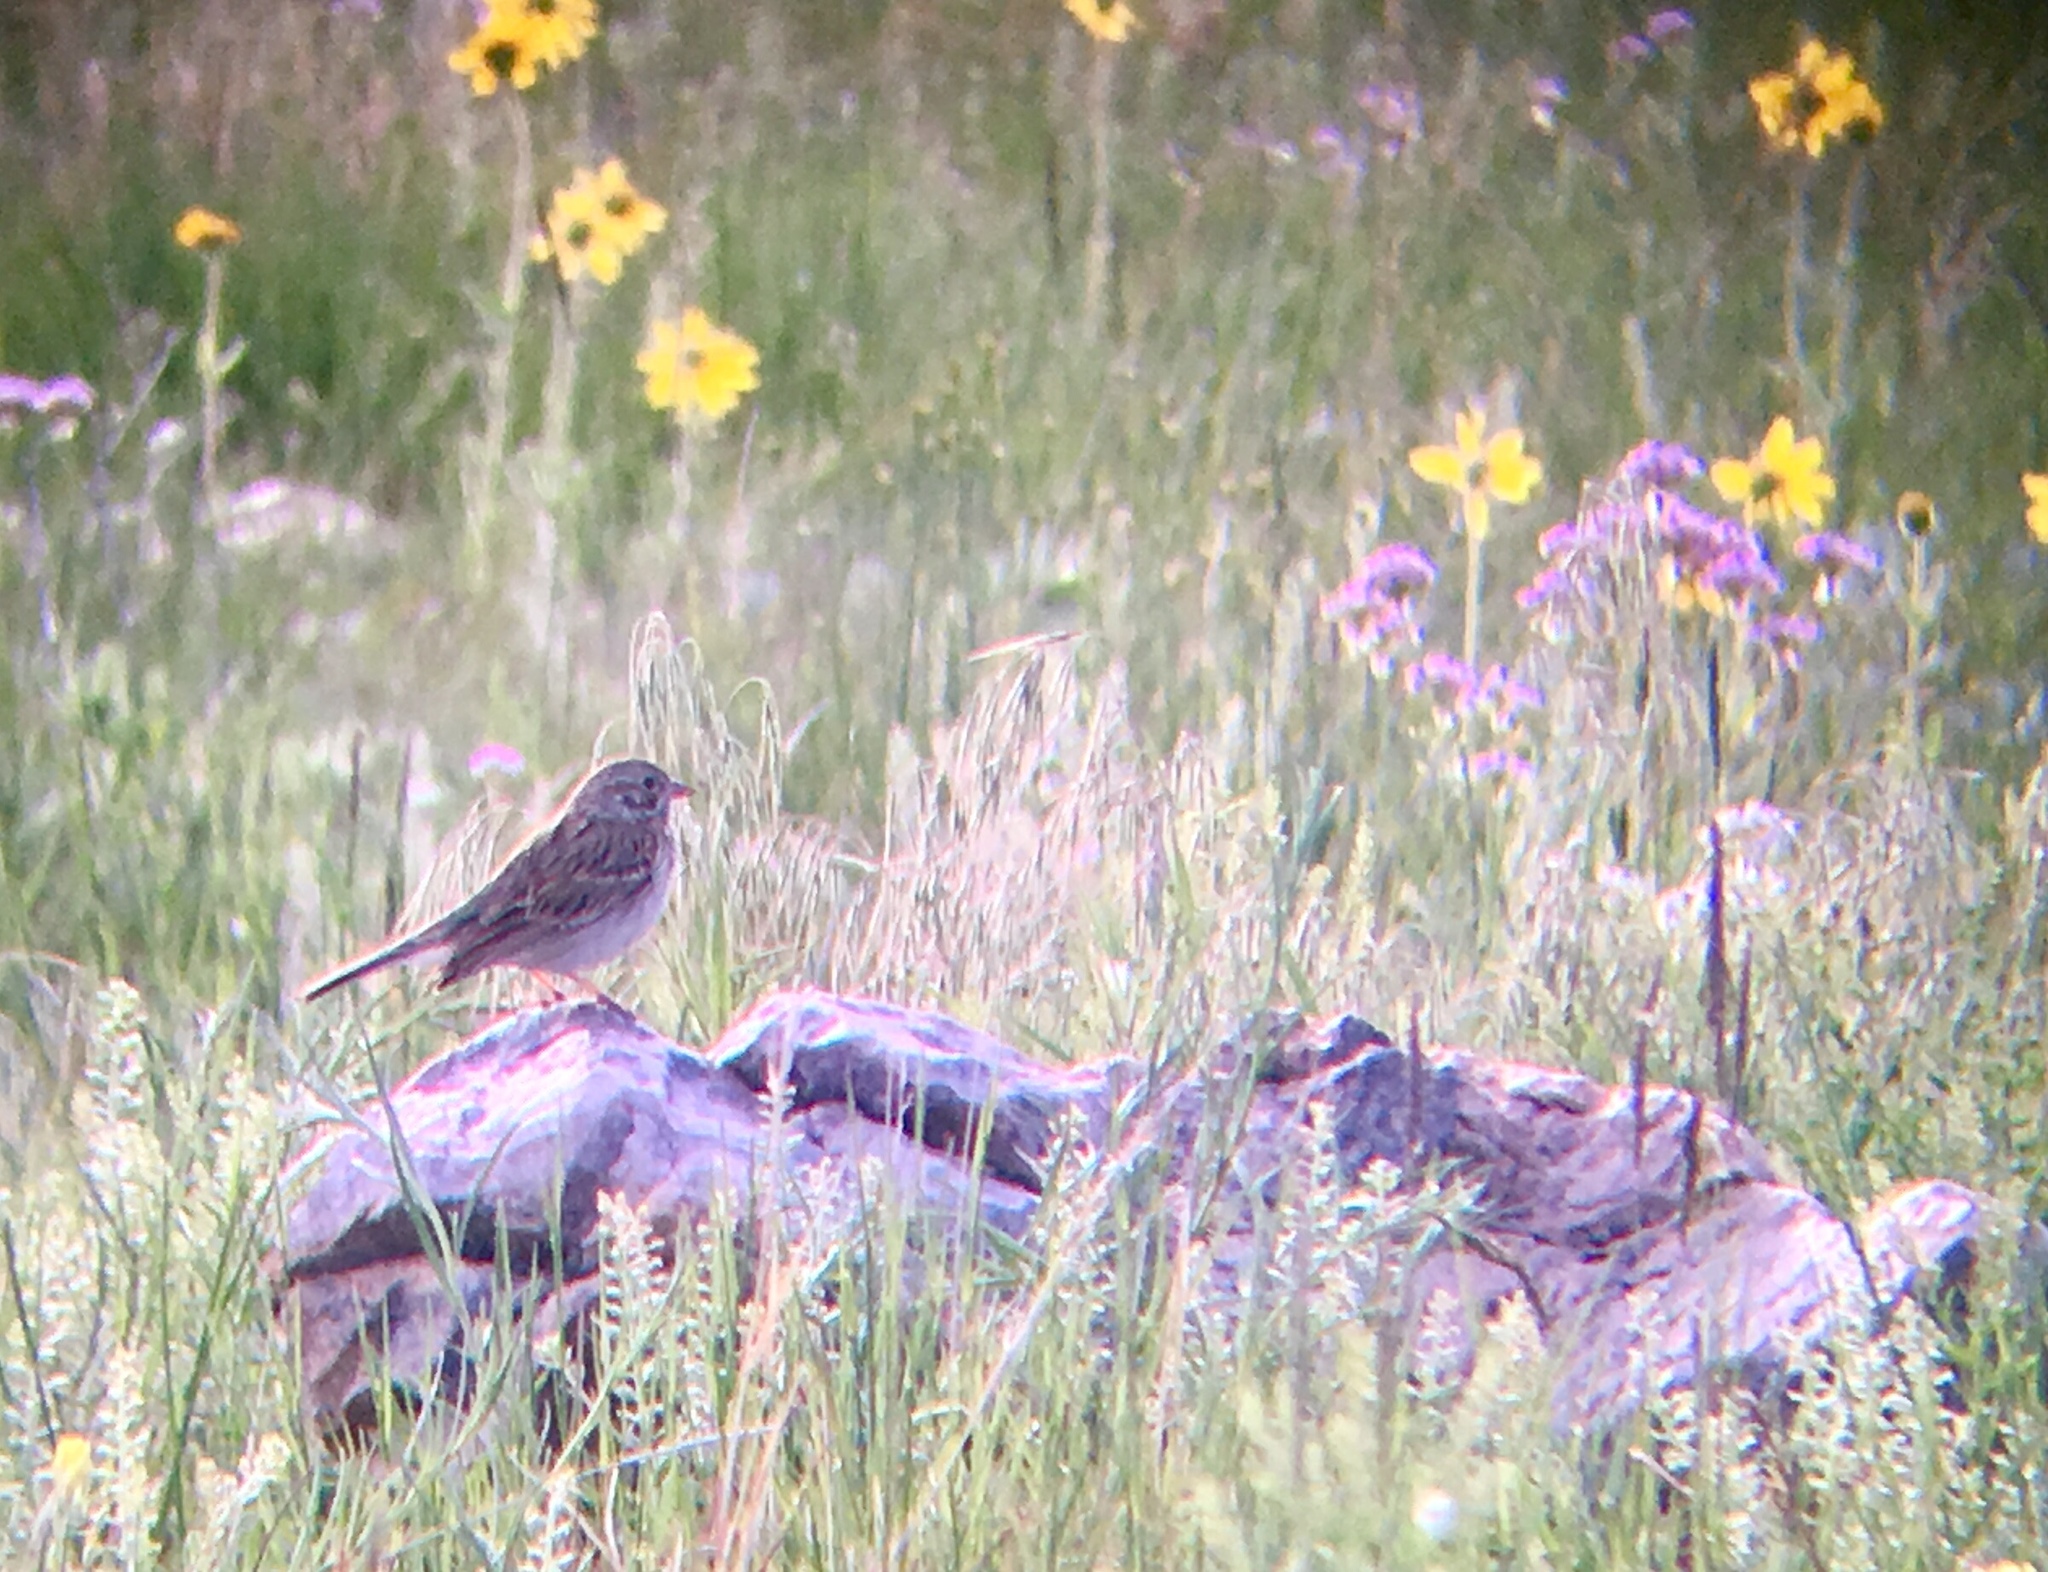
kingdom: Animalia
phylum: Chordata
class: Aves
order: Passeriformes
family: Passerellidae
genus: Pooecetes
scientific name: Pooecetes gramineus
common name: Vesper sparrow
